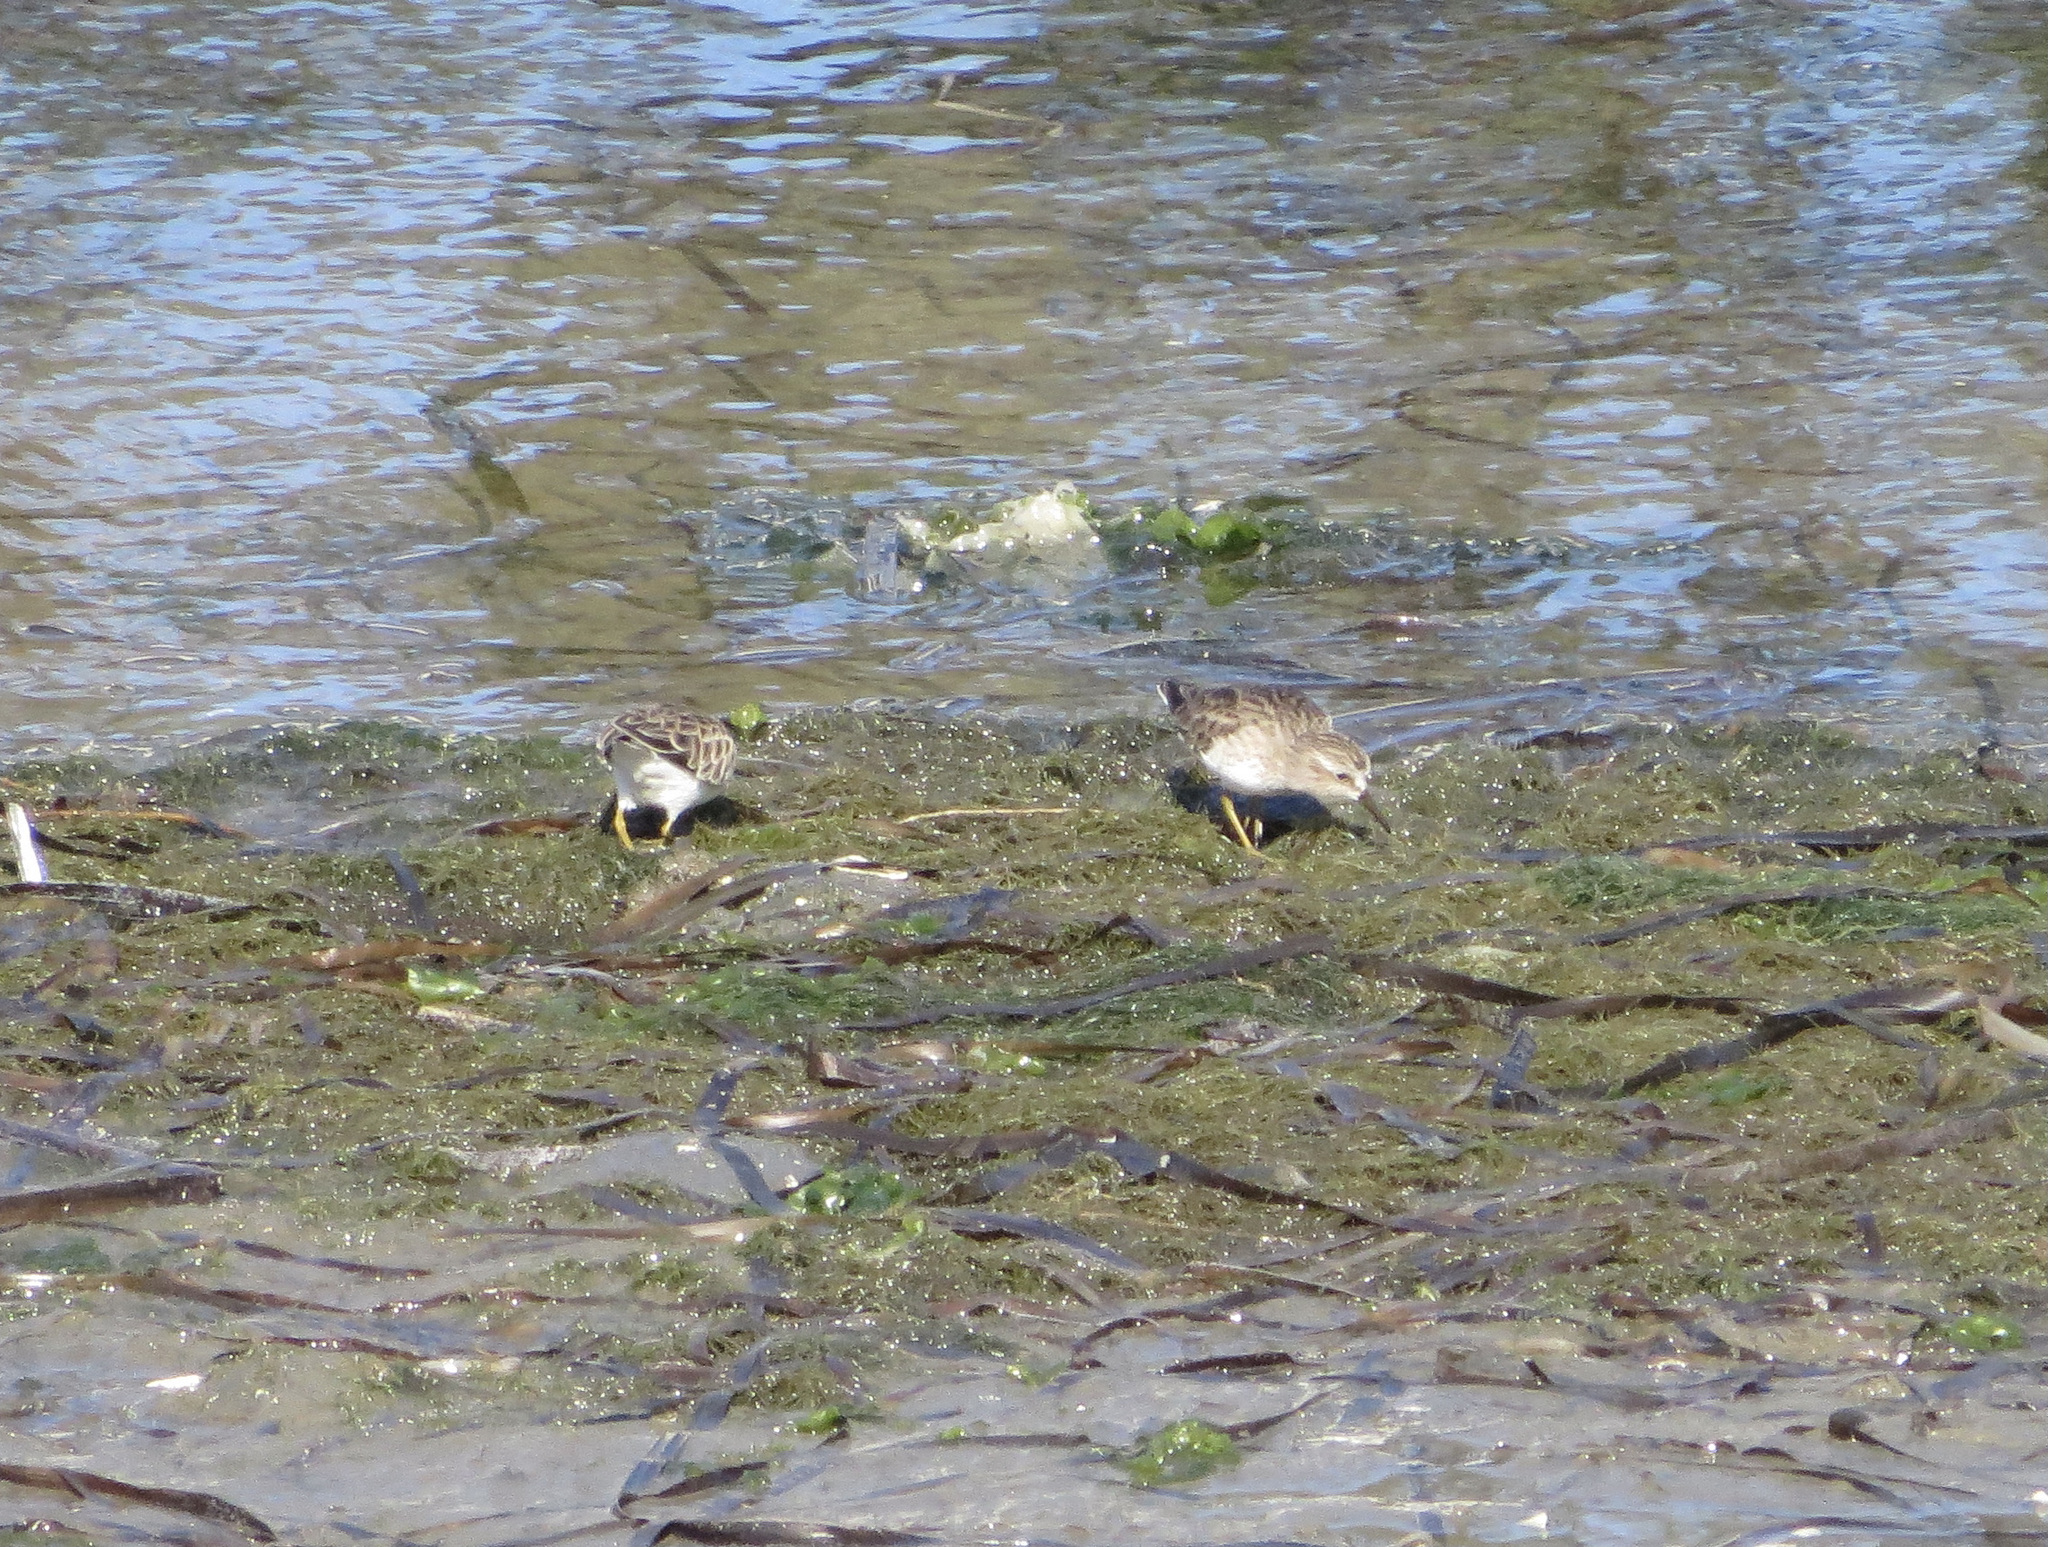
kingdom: Animalia
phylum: Chordata
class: Aves
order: Charadriiformes
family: Scolopacidae
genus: Calidris
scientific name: Calidris minutilla
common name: Least sandpiper
